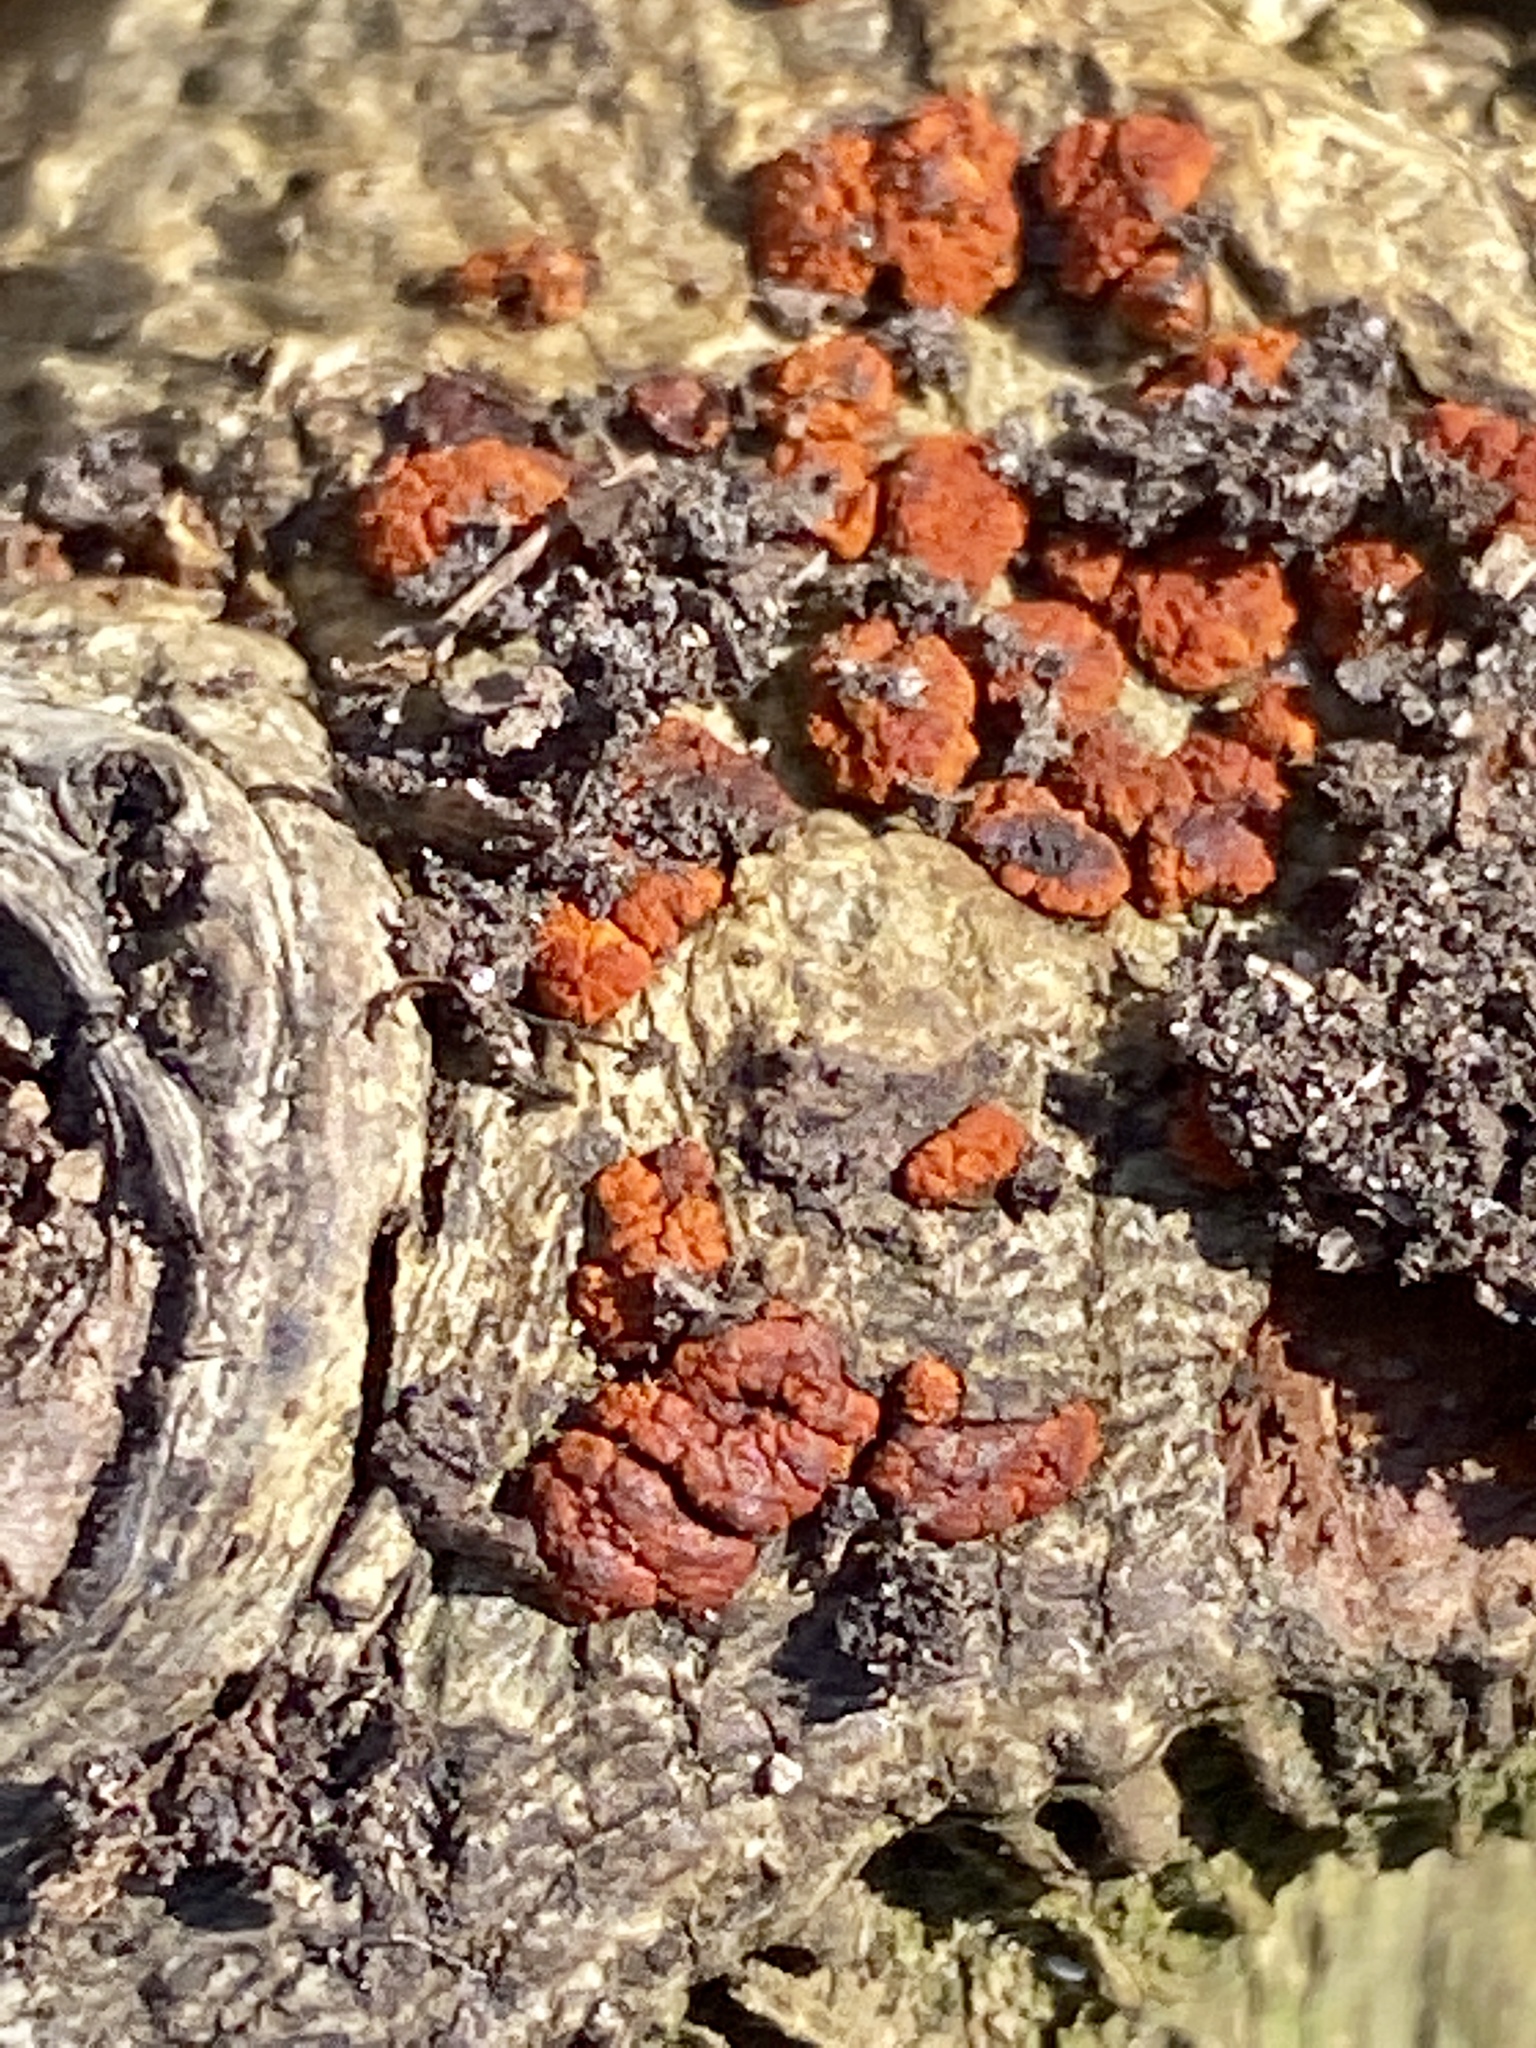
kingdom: Fungi
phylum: Ascomycota
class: Sordariomycetes
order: Diaporthales
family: Cryphonectriaceae
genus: Amphilogia
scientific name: Amphilogia gyrosa
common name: Orange hobnail canker
